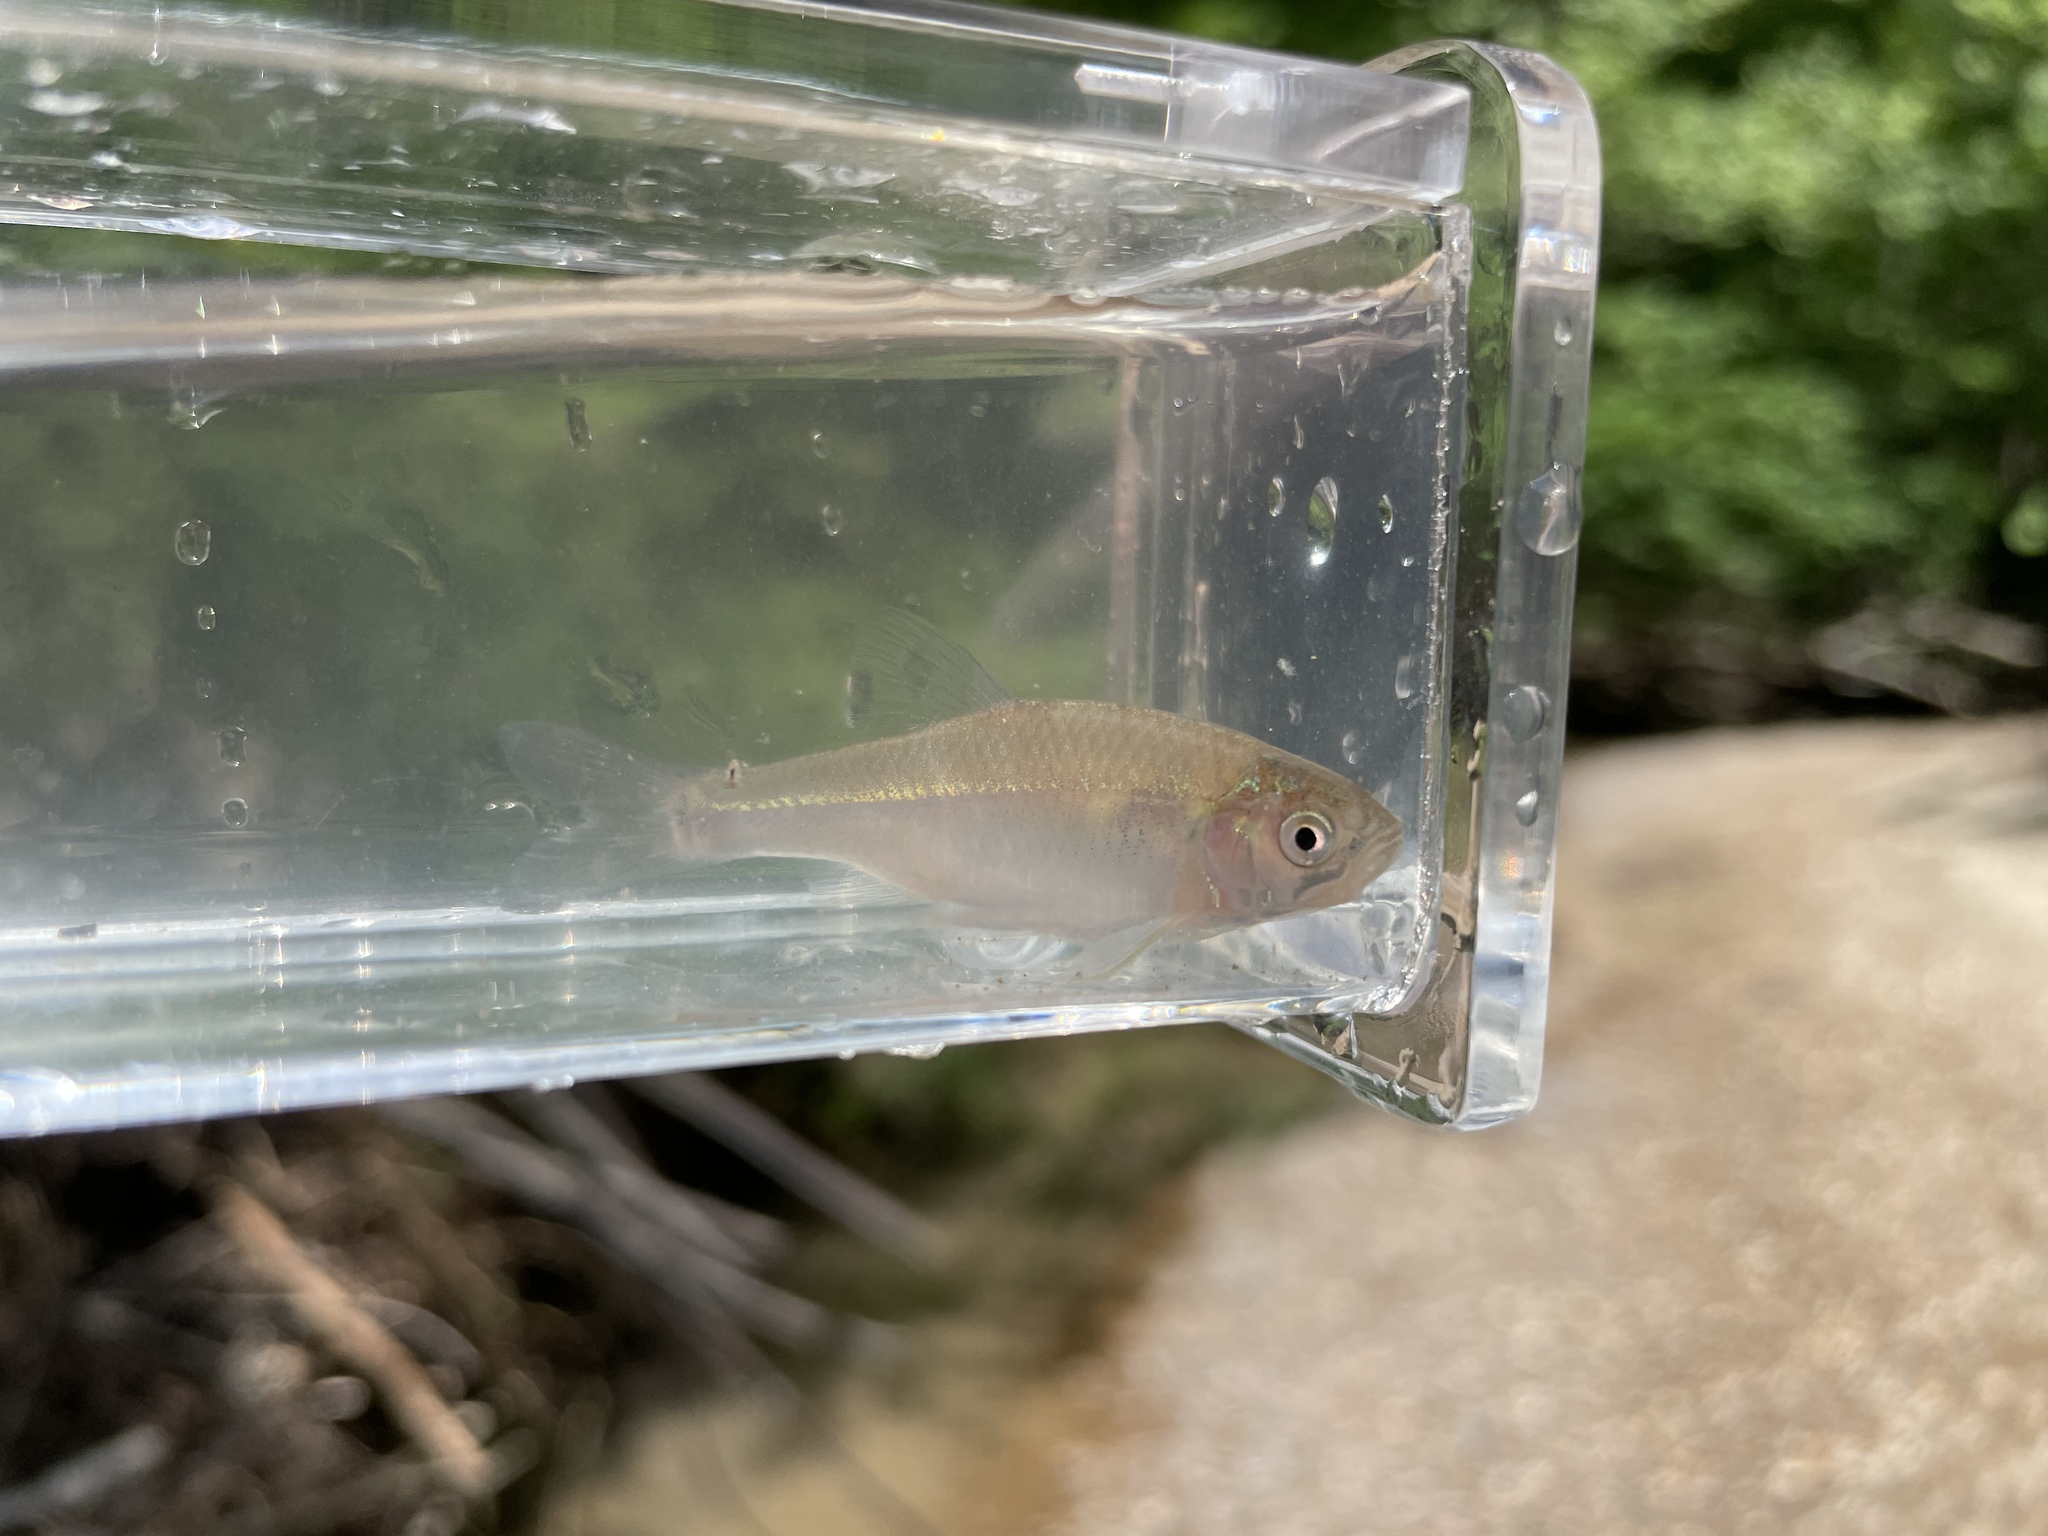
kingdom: Animalia
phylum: Chordata
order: Cypriniformes
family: Cyprinidae
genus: Cyprinella
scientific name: Cyprinella lutrensis
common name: Red shiner
